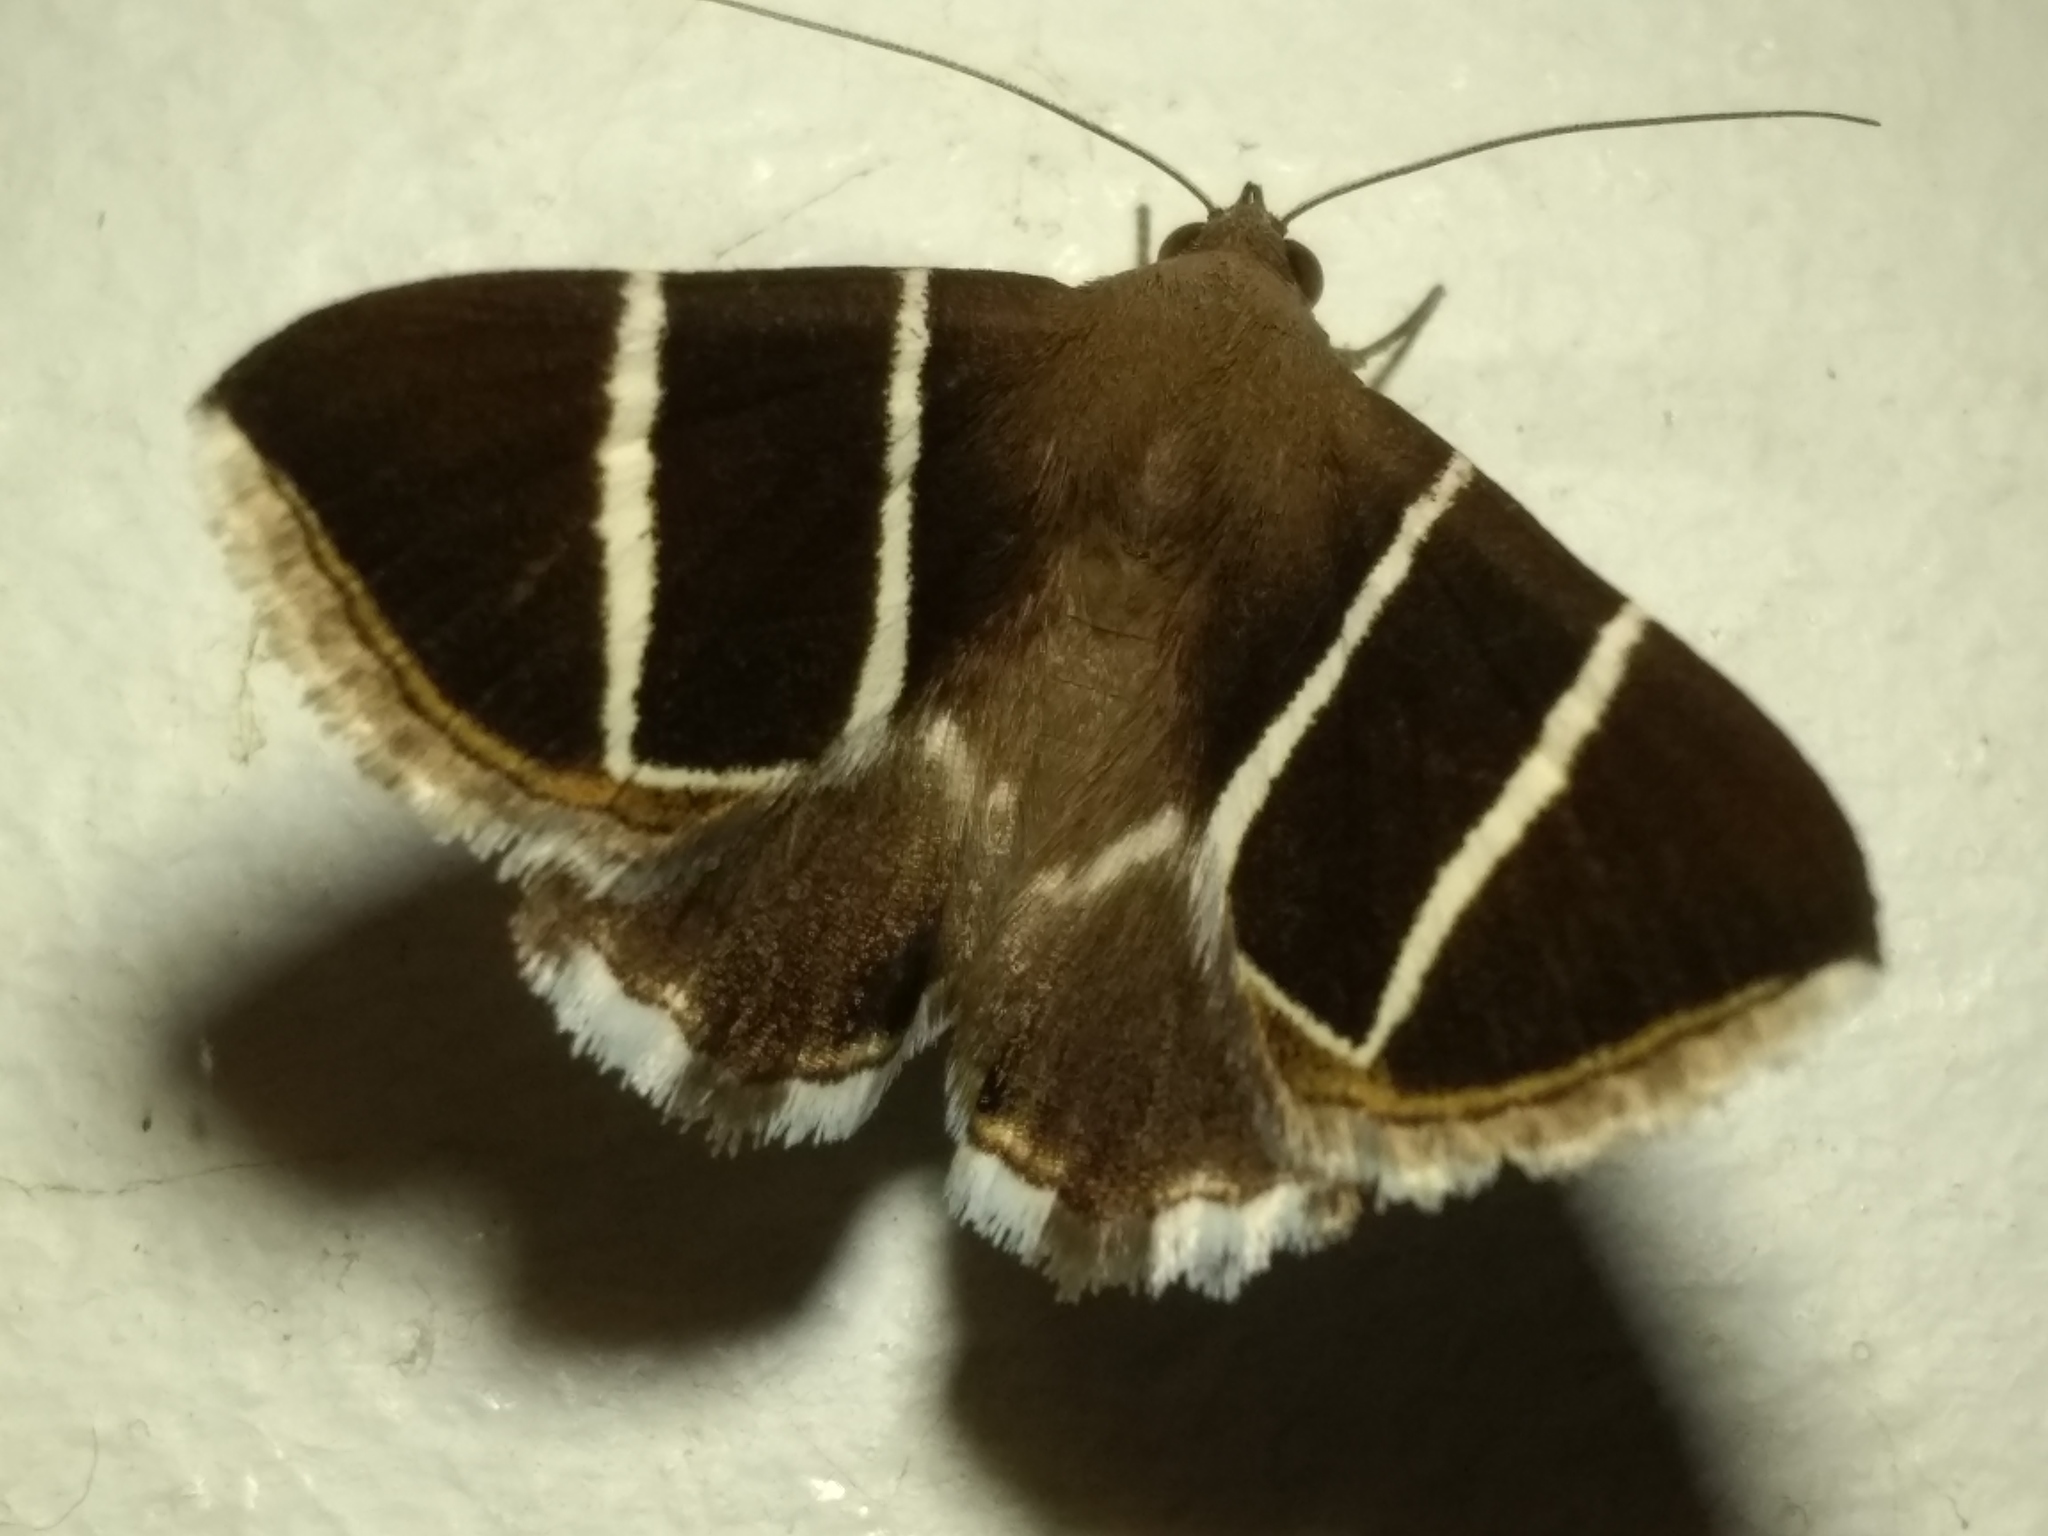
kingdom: Animalia
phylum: Arthropoda
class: Insecta
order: Lepidoptera
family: Erebidae
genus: Grammodes
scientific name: Grammodes justa
